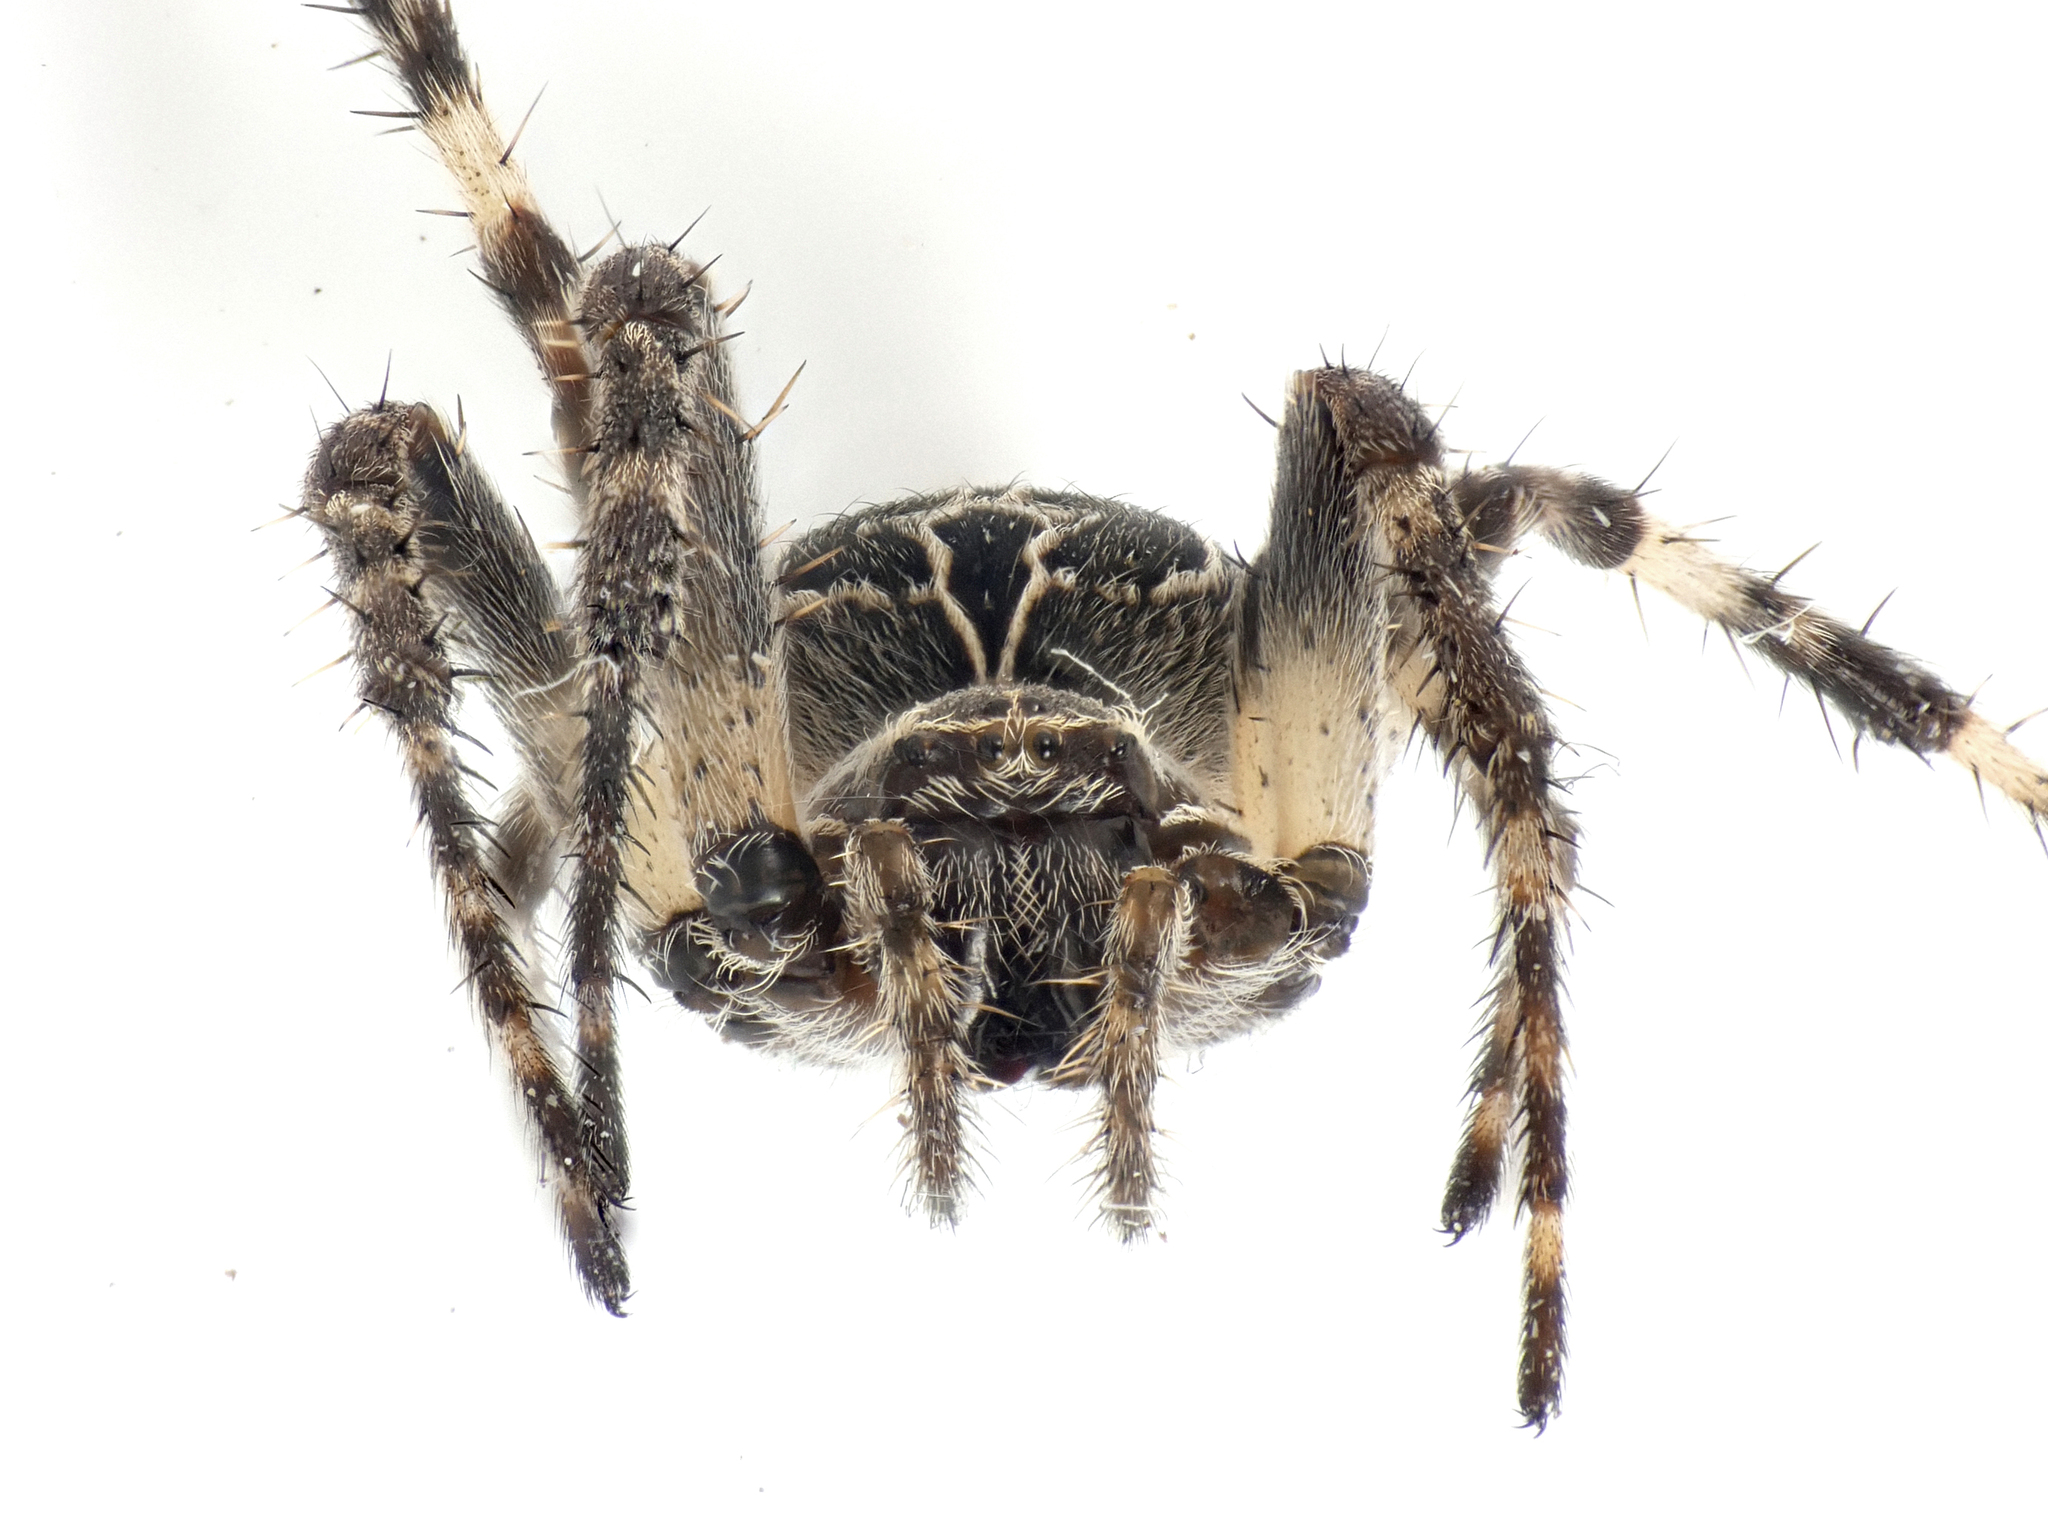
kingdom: Animalia
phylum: Arthropoda
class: Arachnida
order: Araneae
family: Araneidae
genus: Larinioides
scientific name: Larinioides sclopetarius
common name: Bridge orbweaver
